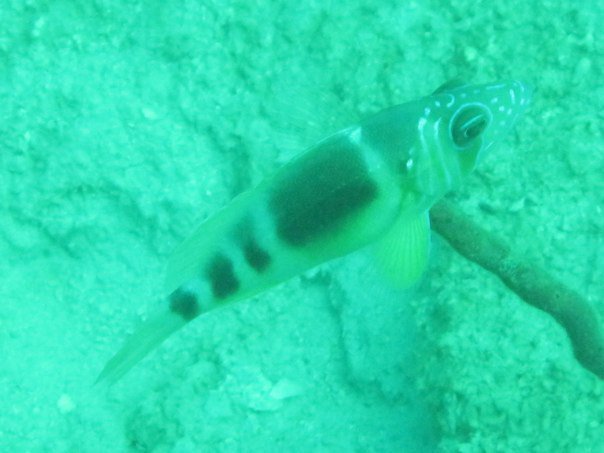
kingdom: Animalia
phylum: Chordata
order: Perciformes
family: Serranidae
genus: Hypoplectrus
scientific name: Hypoplectrus puella
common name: Barred hamlet
